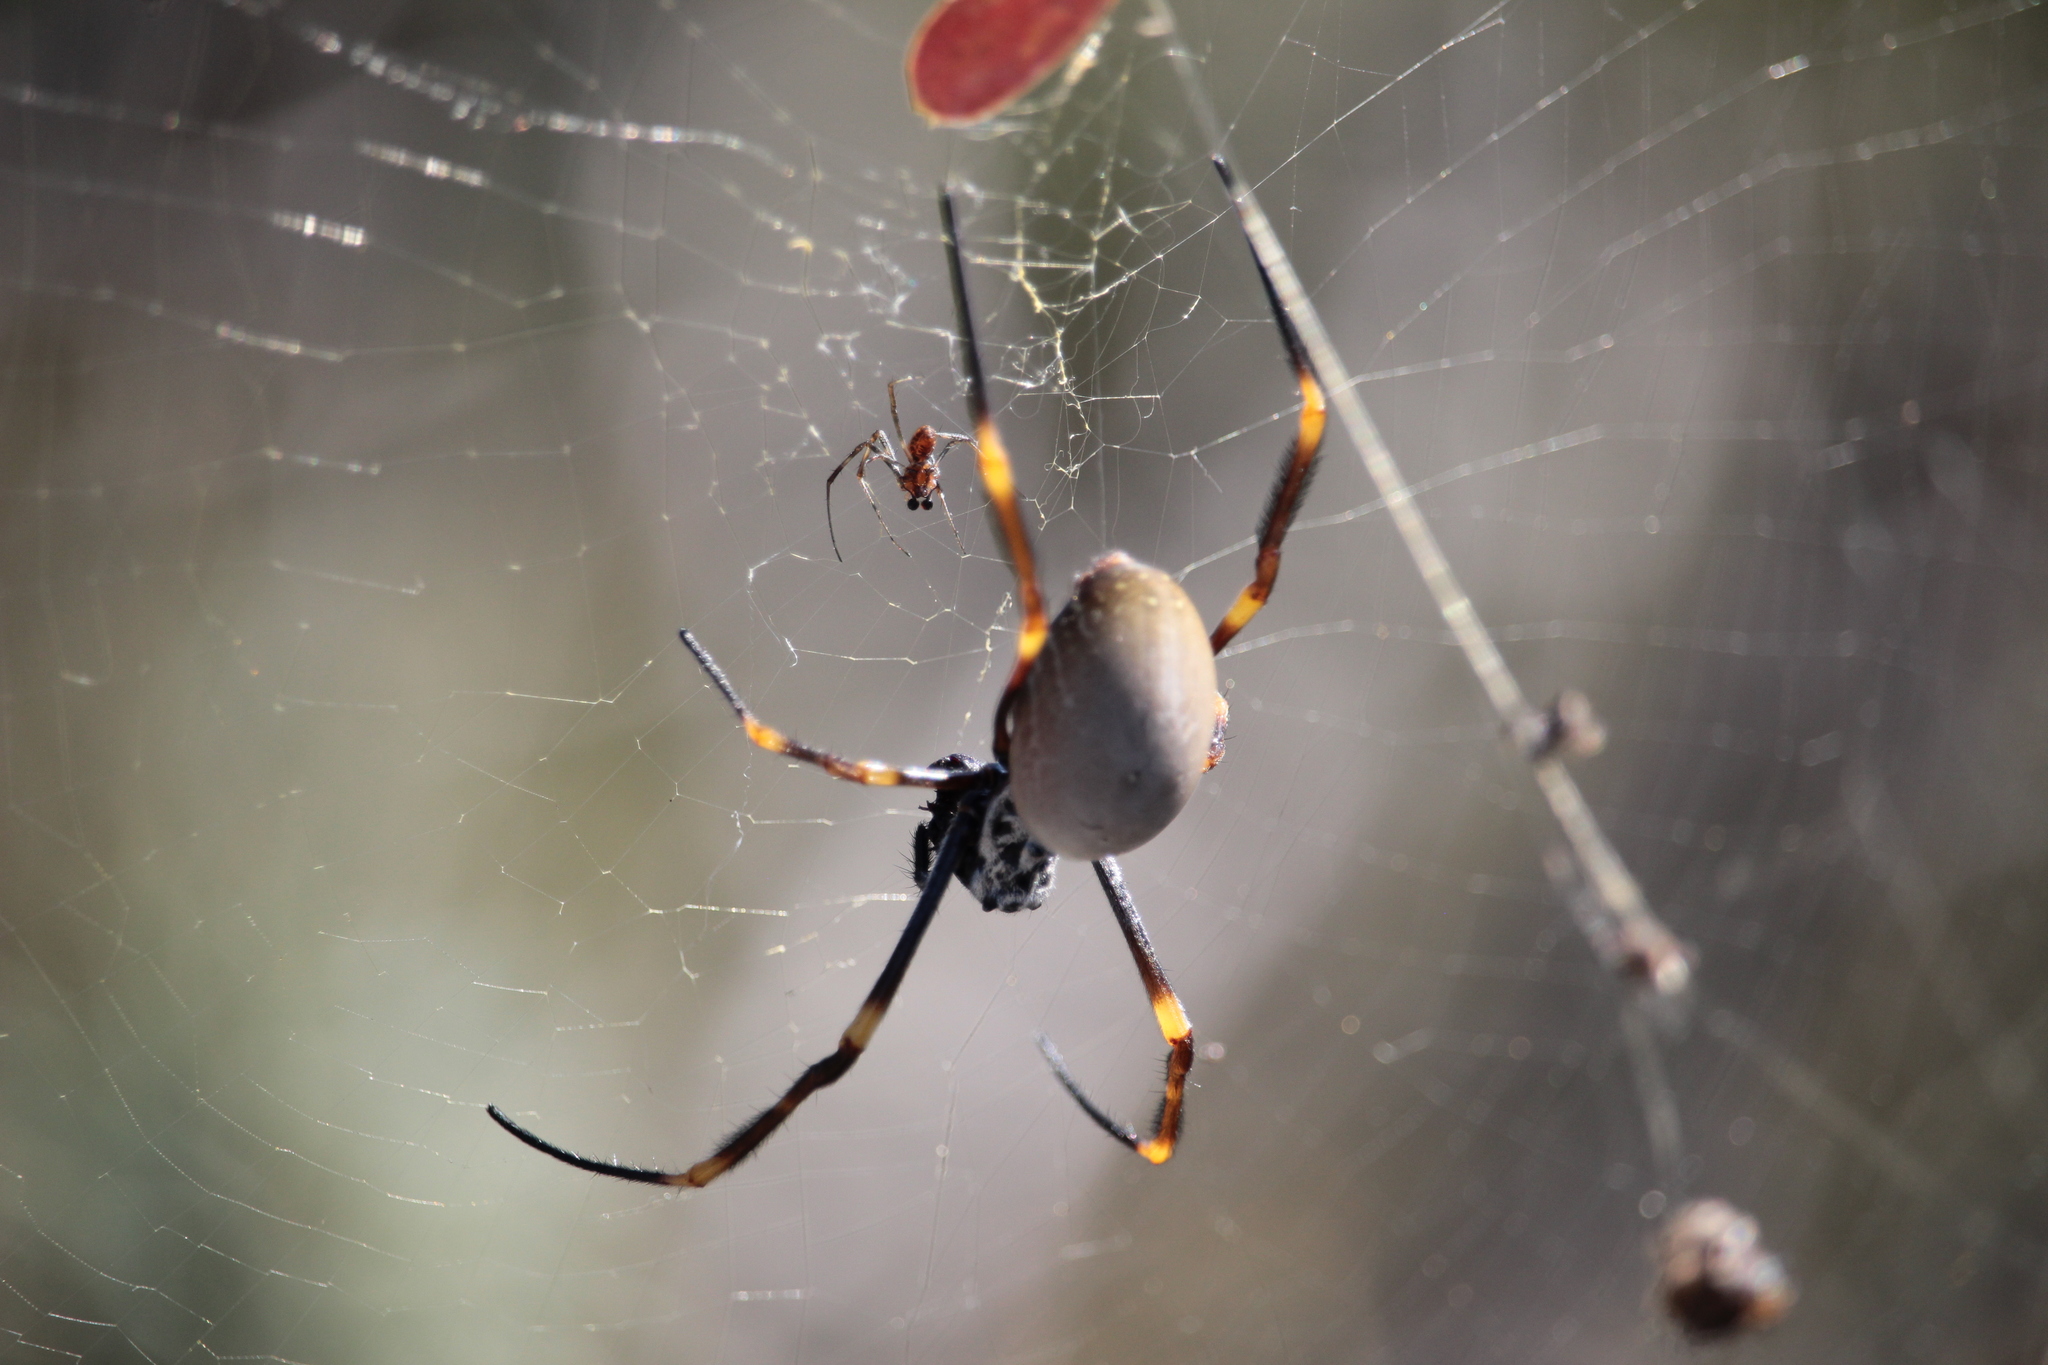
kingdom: Animalia
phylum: Arthropoda
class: Arachnida
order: Araneae
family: Araneidae
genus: Trichonephila
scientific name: Trichonephila plumipes
